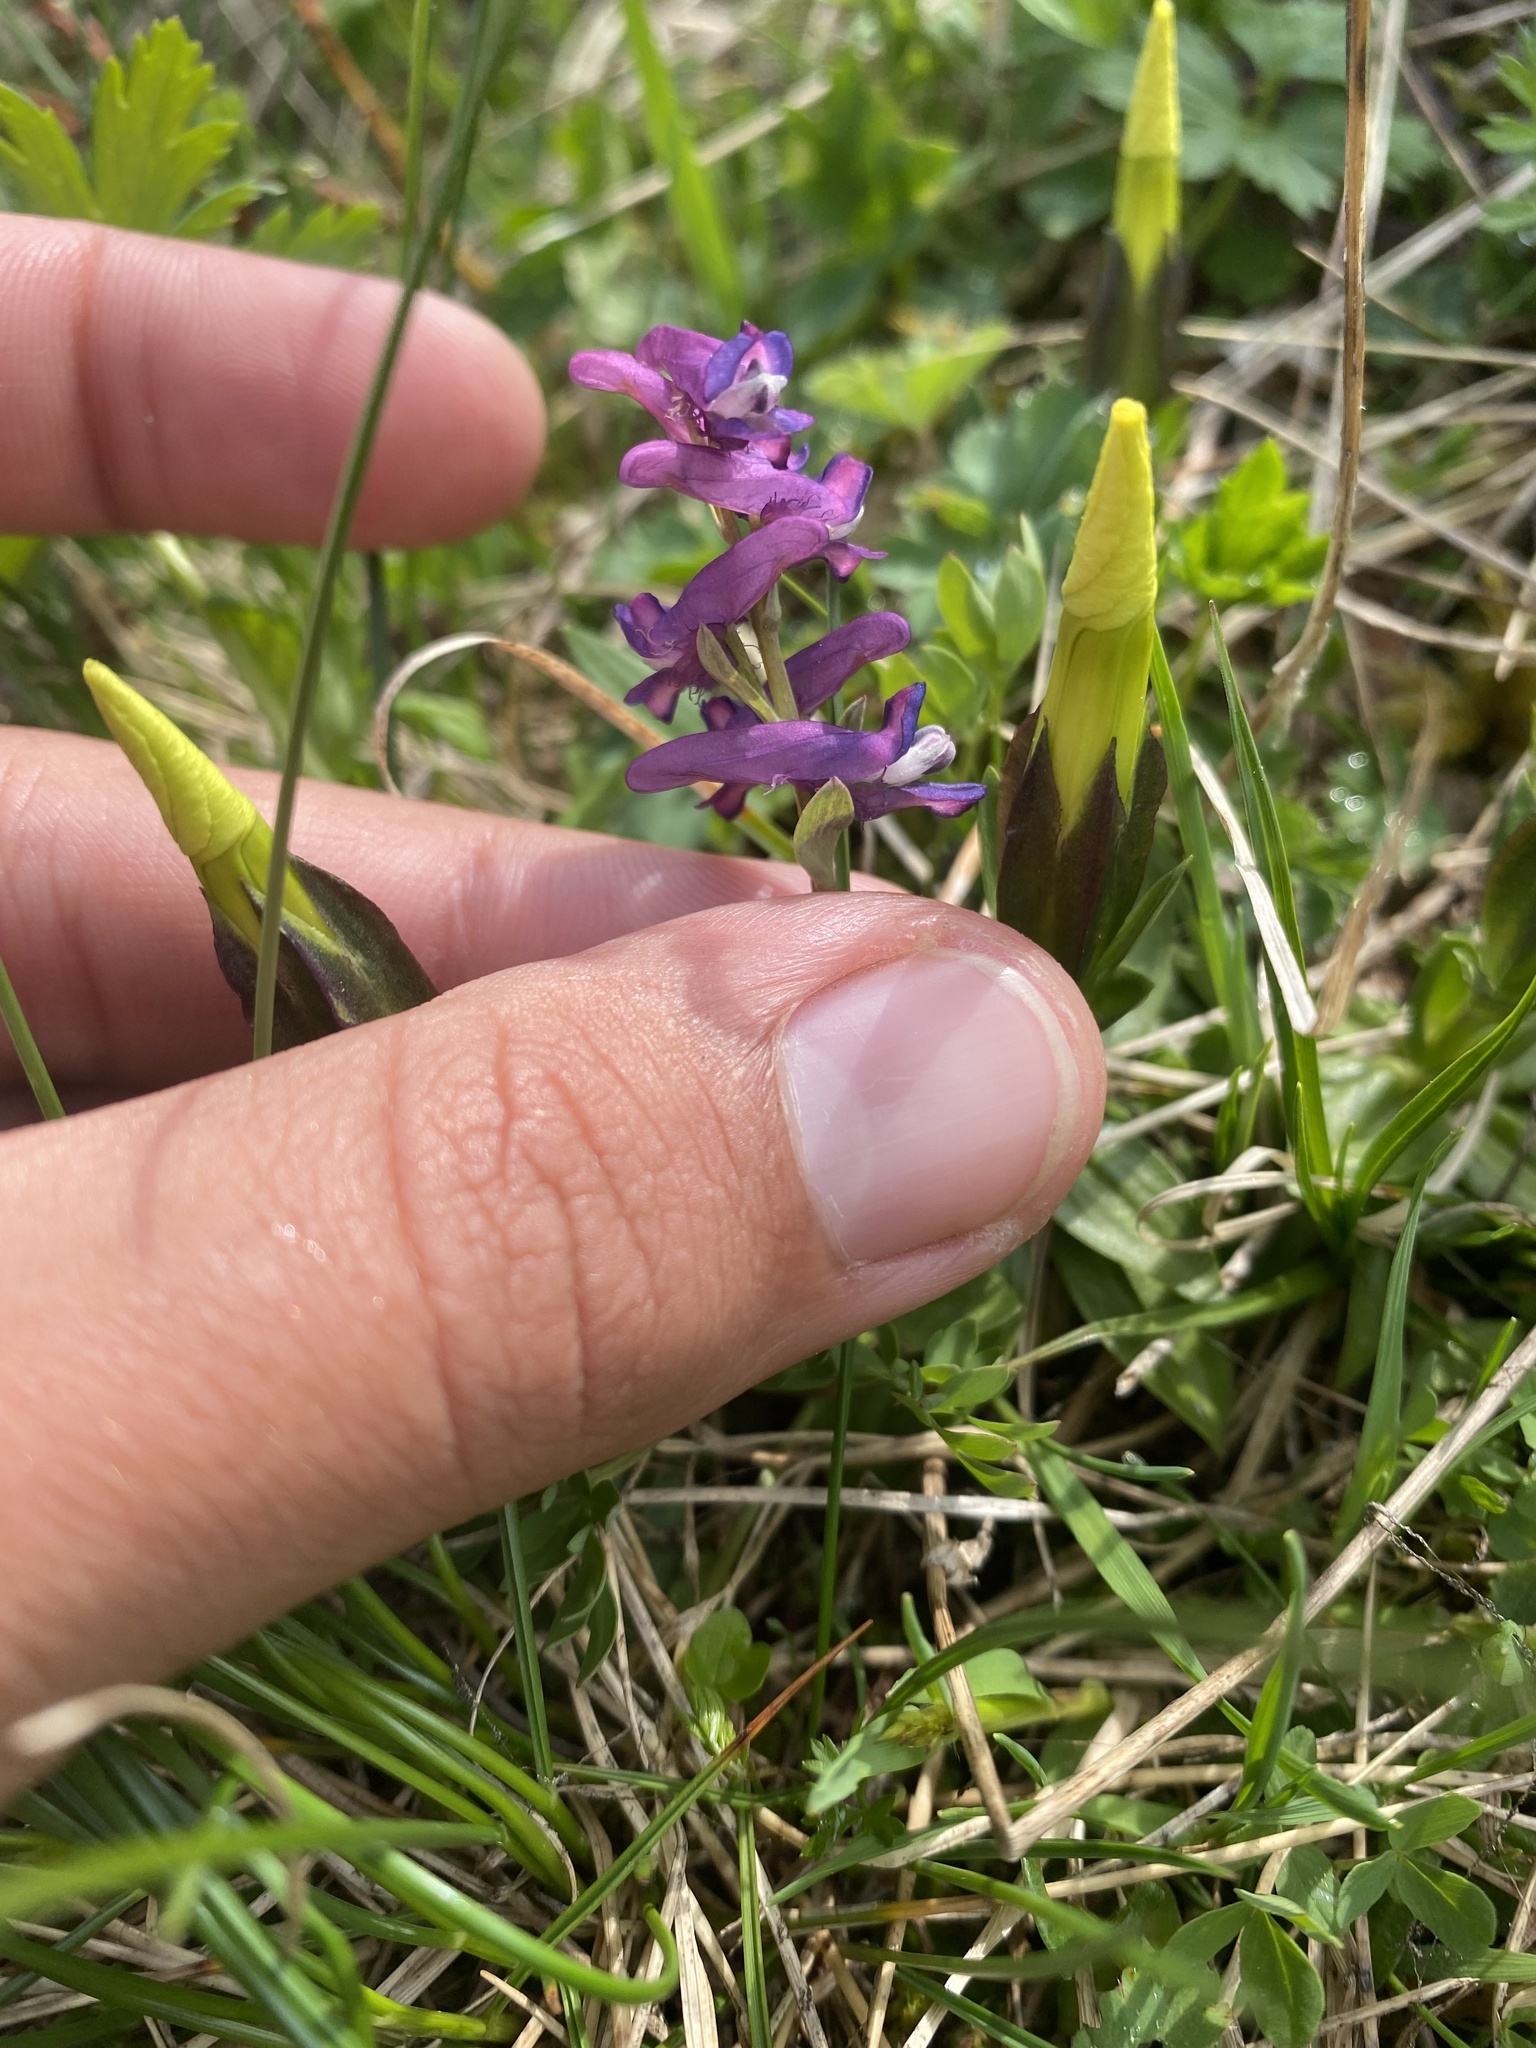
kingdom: Plantae
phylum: Tracheophyta
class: Magnoliopsida
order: Ranunculales
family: Papaveraceae
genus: Corydalis
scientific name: Corydalis conorhiza
